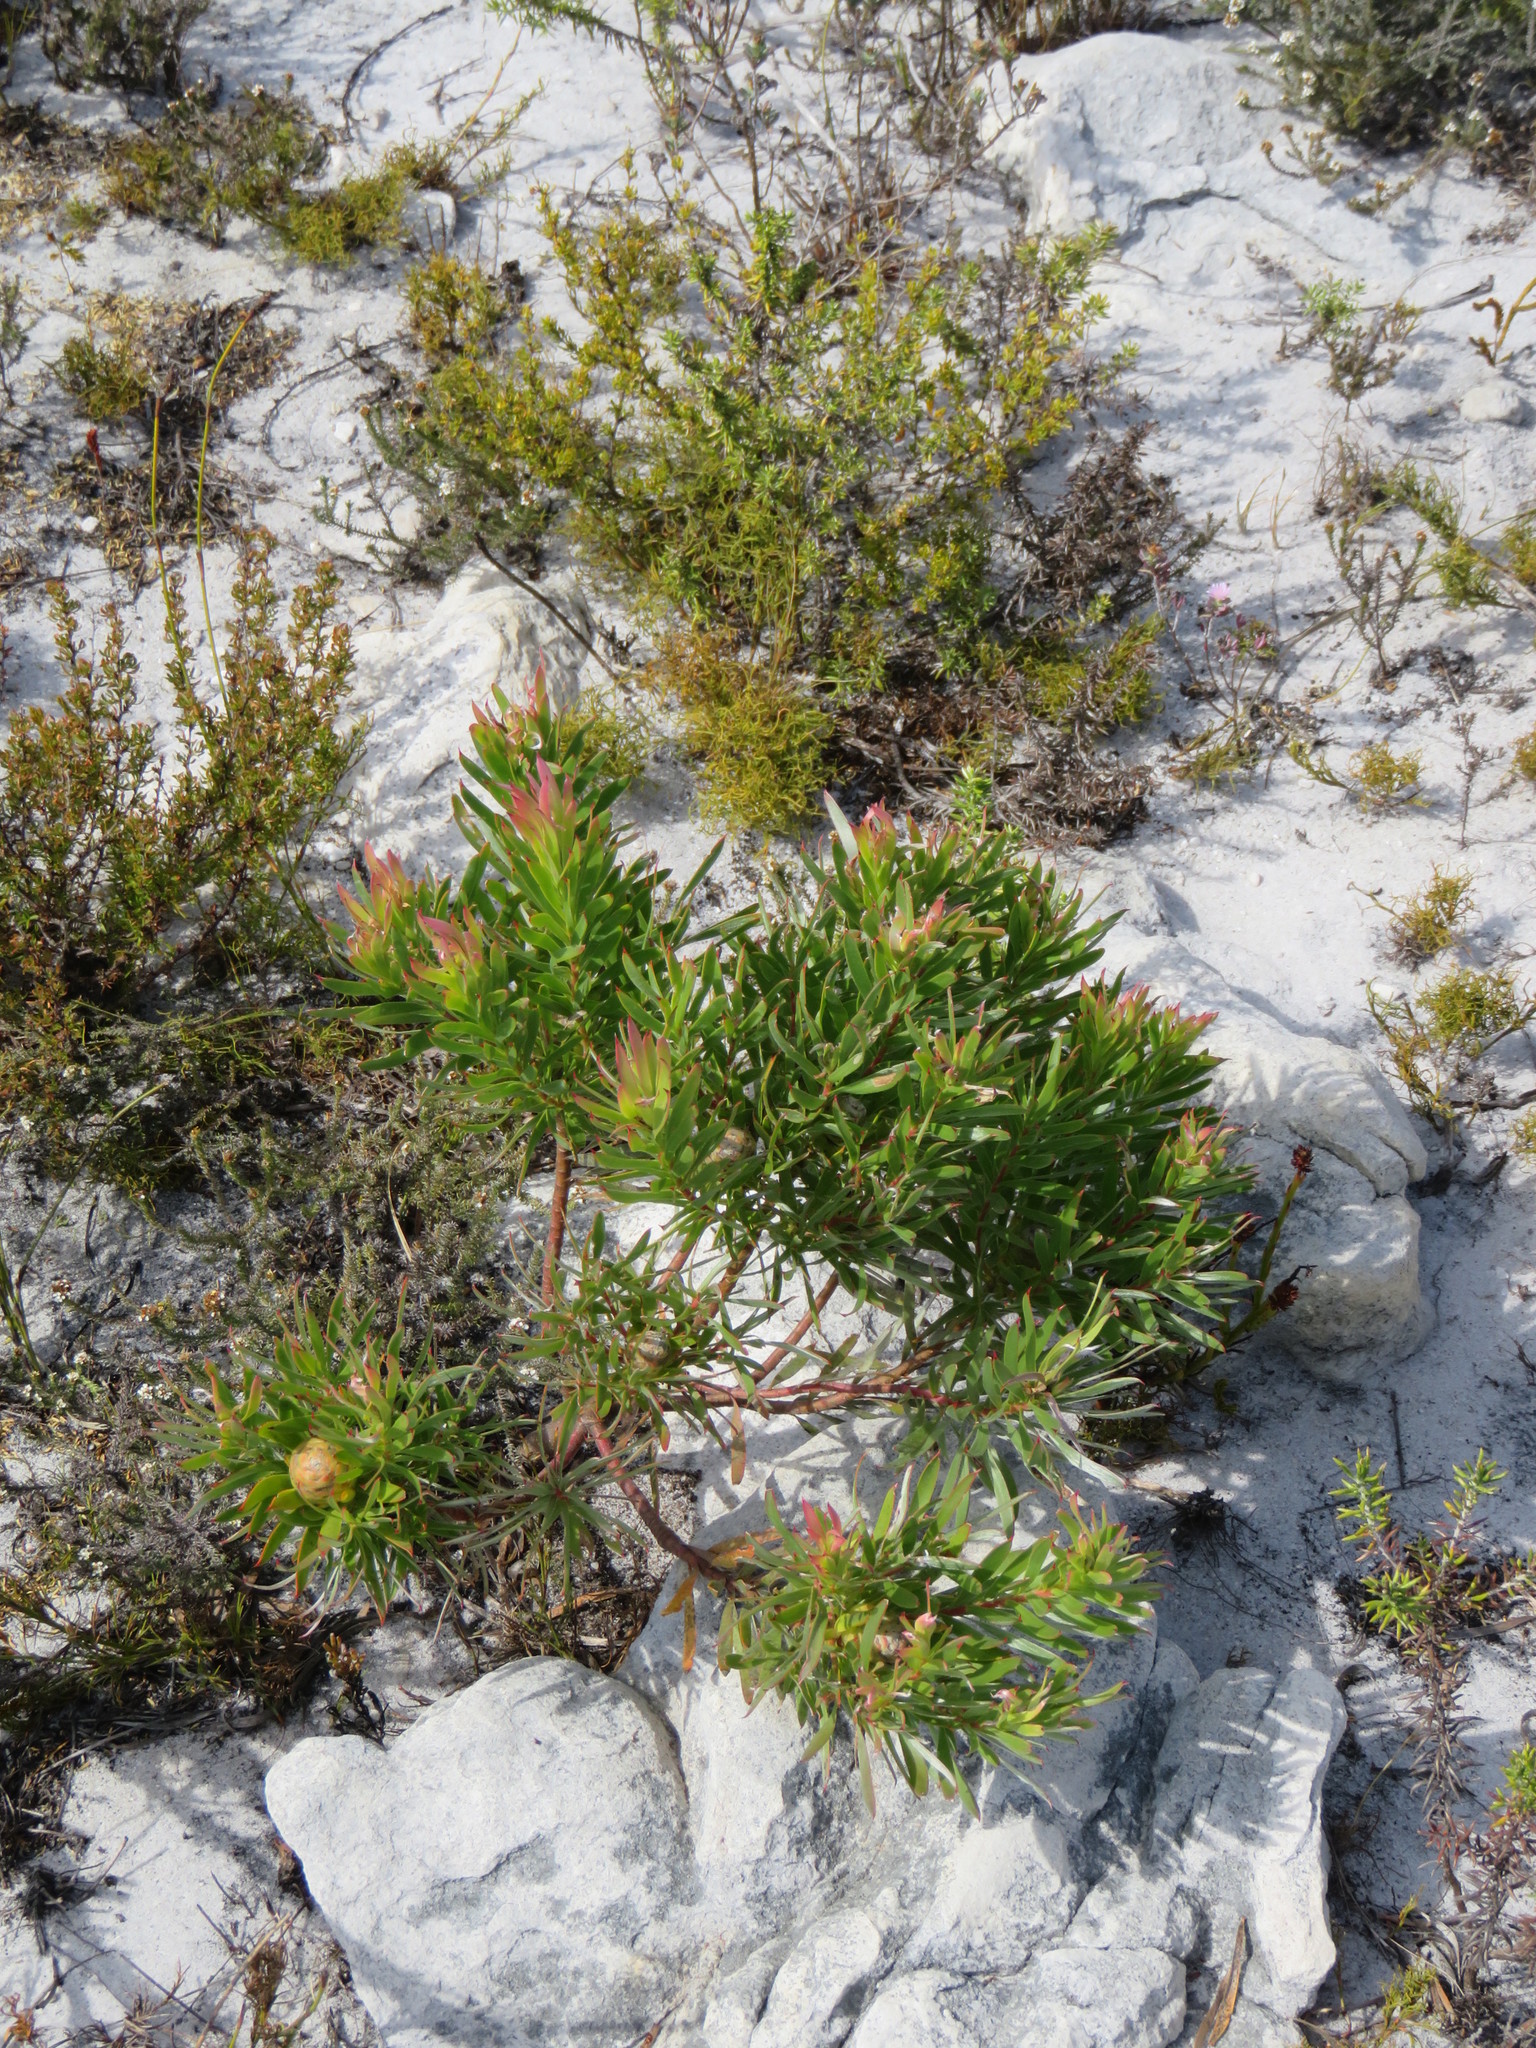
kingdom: Plantae
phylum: Tracheophyta
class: Magnoliopsida
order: Proteales
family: Proteaceae
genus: Leucadendron
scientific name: Leucadendron xanthoconus
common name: Sickle-leaf conebush
